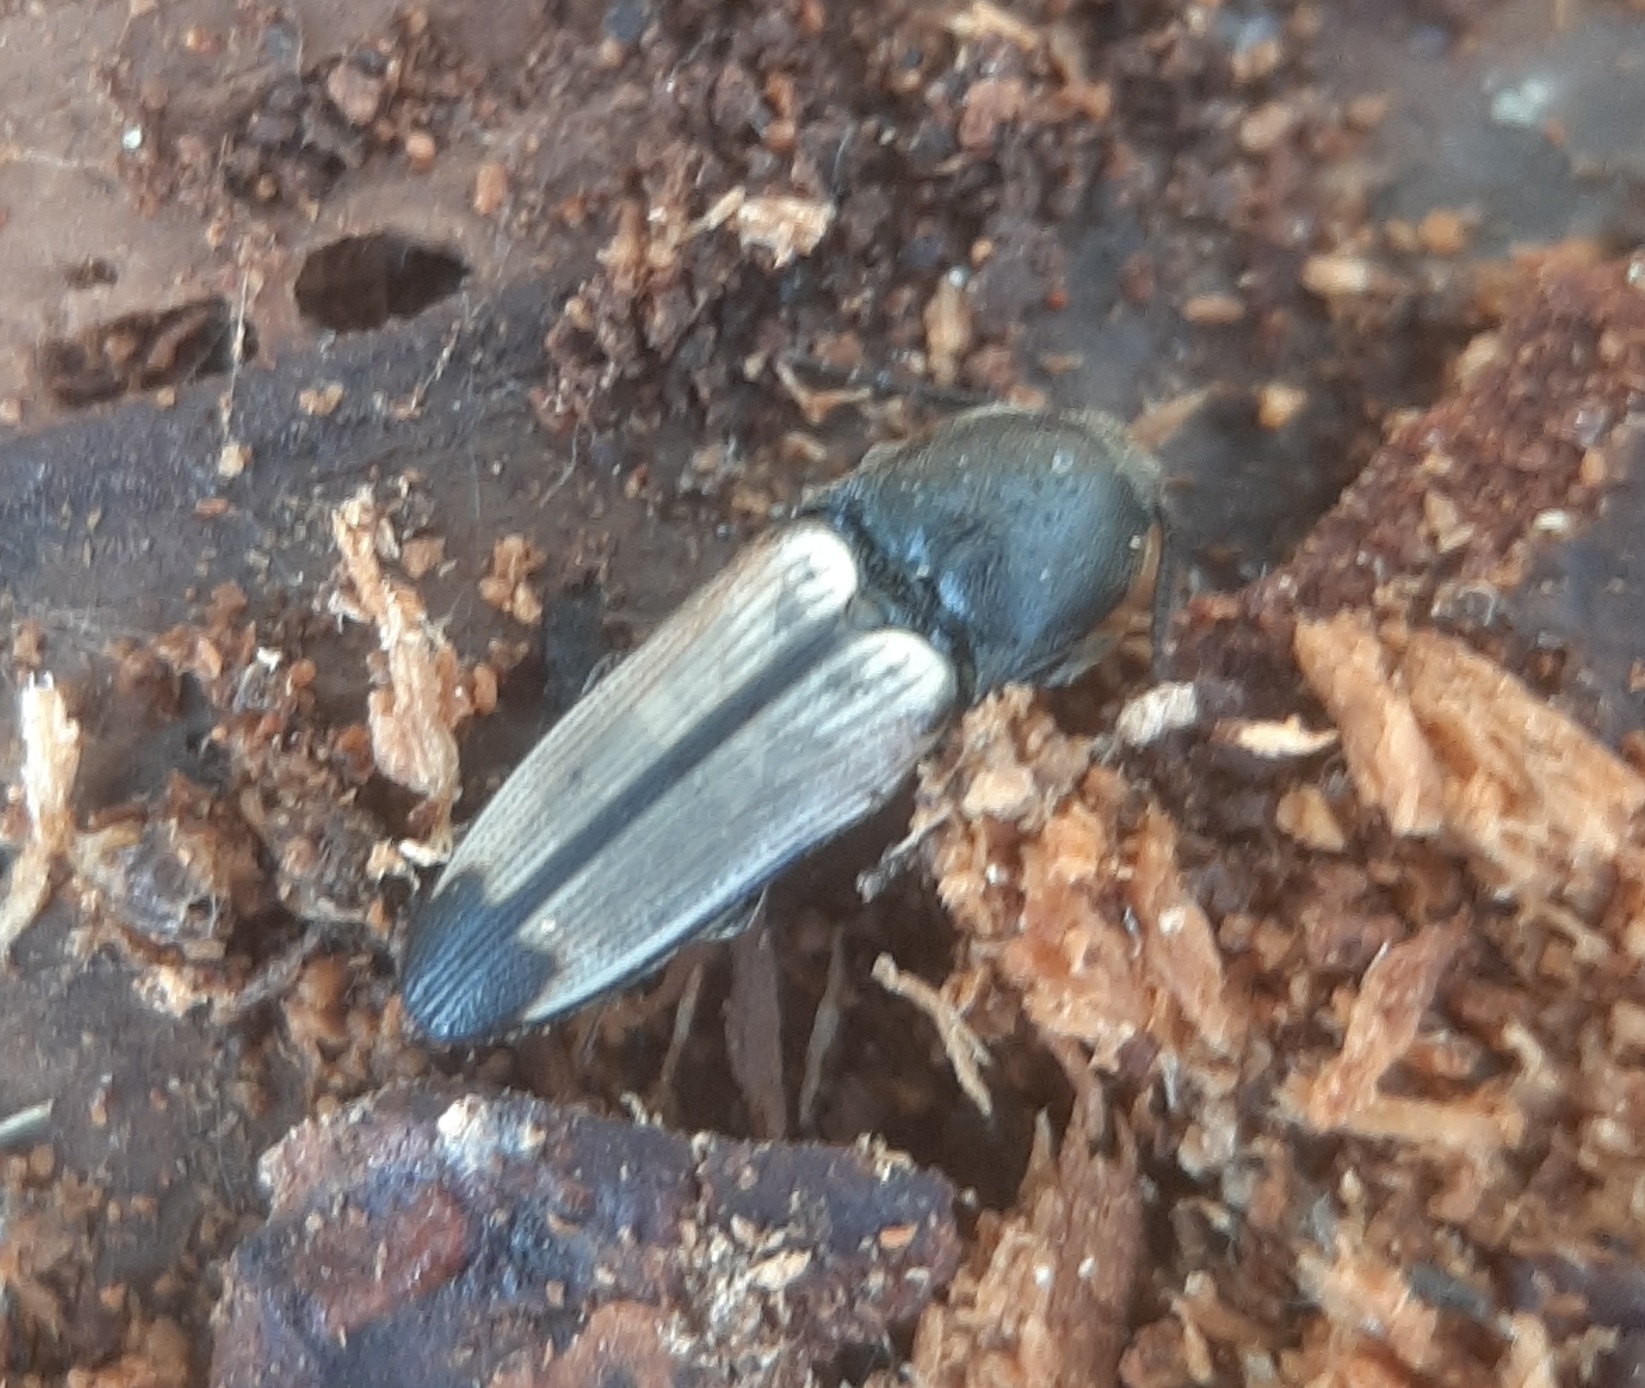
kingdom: Animalia
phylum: Arthropoda
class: Insecta
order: Coleoptera
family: Elateridae
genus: Ampedus
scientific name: Ampedus linteus
